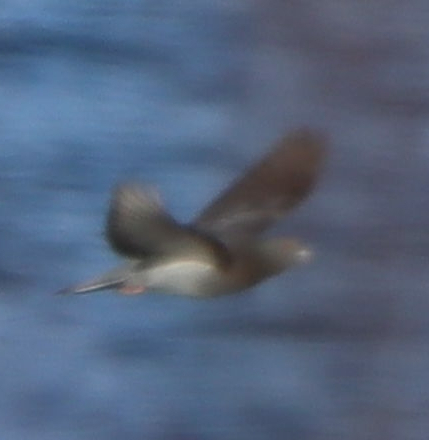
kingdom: Animalia
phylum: Chordata
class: Aves
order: Columbiformes
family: Columbidae
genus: Columba
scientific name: Columba livia
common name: Rock pigeon
